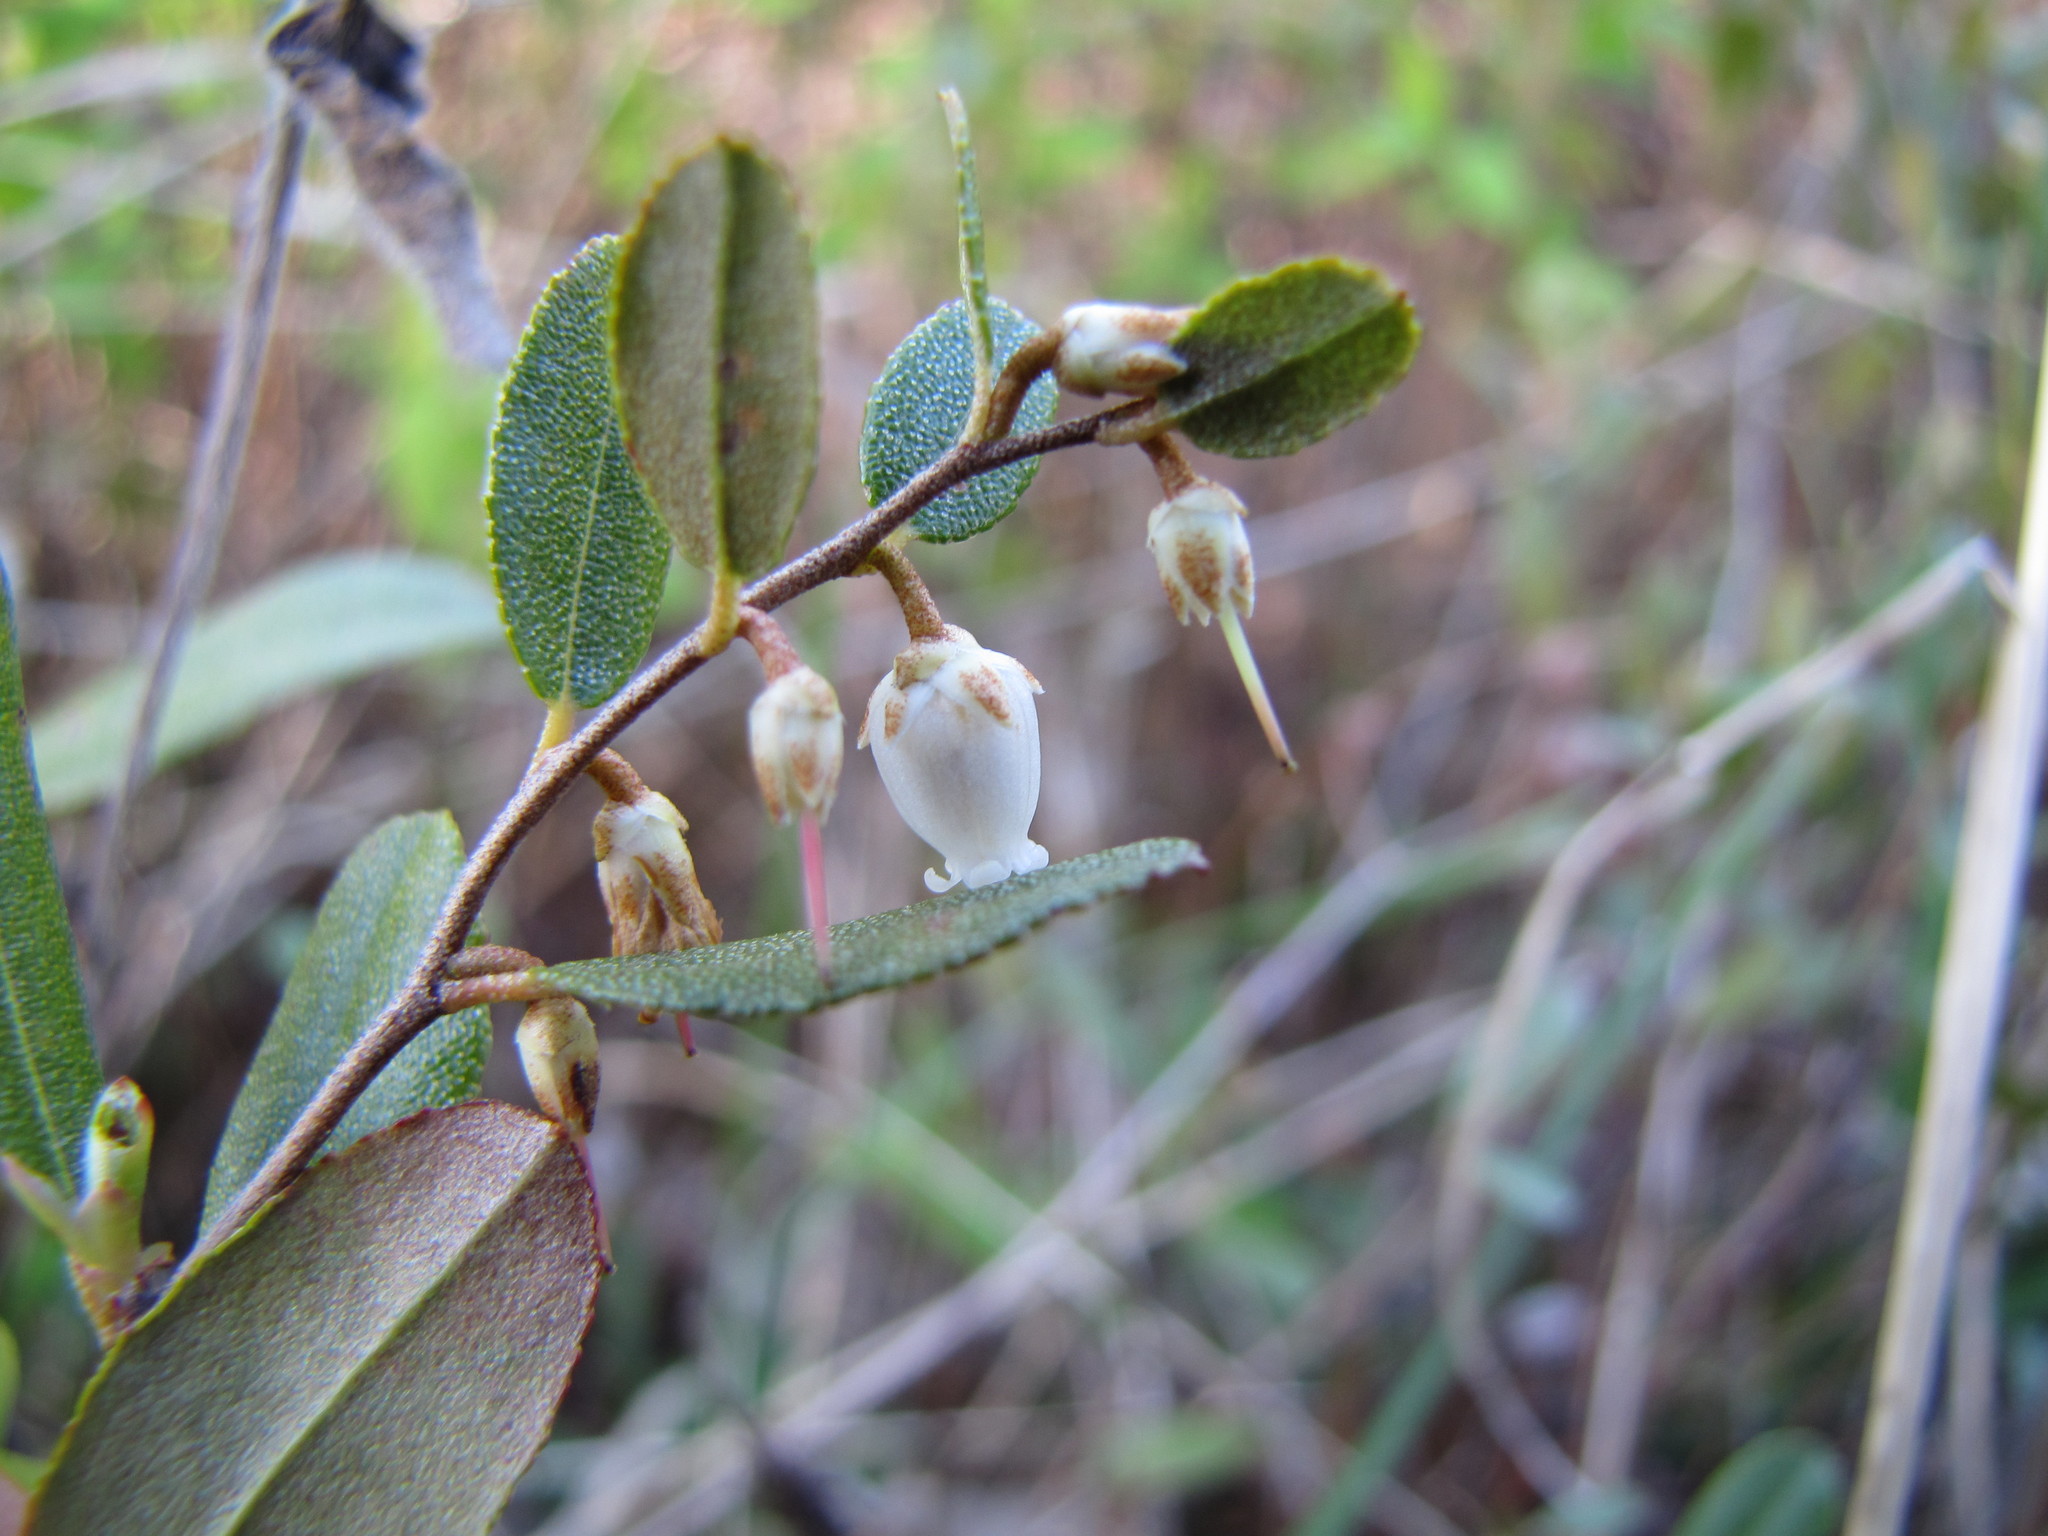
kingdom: Plantae
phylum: Tracheophyta
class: Magnoliopsida
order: Ericales
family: Ericaceae
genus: Chamaedaphne
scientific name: Chamaedaphne calyculata
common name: Leatherleaf
